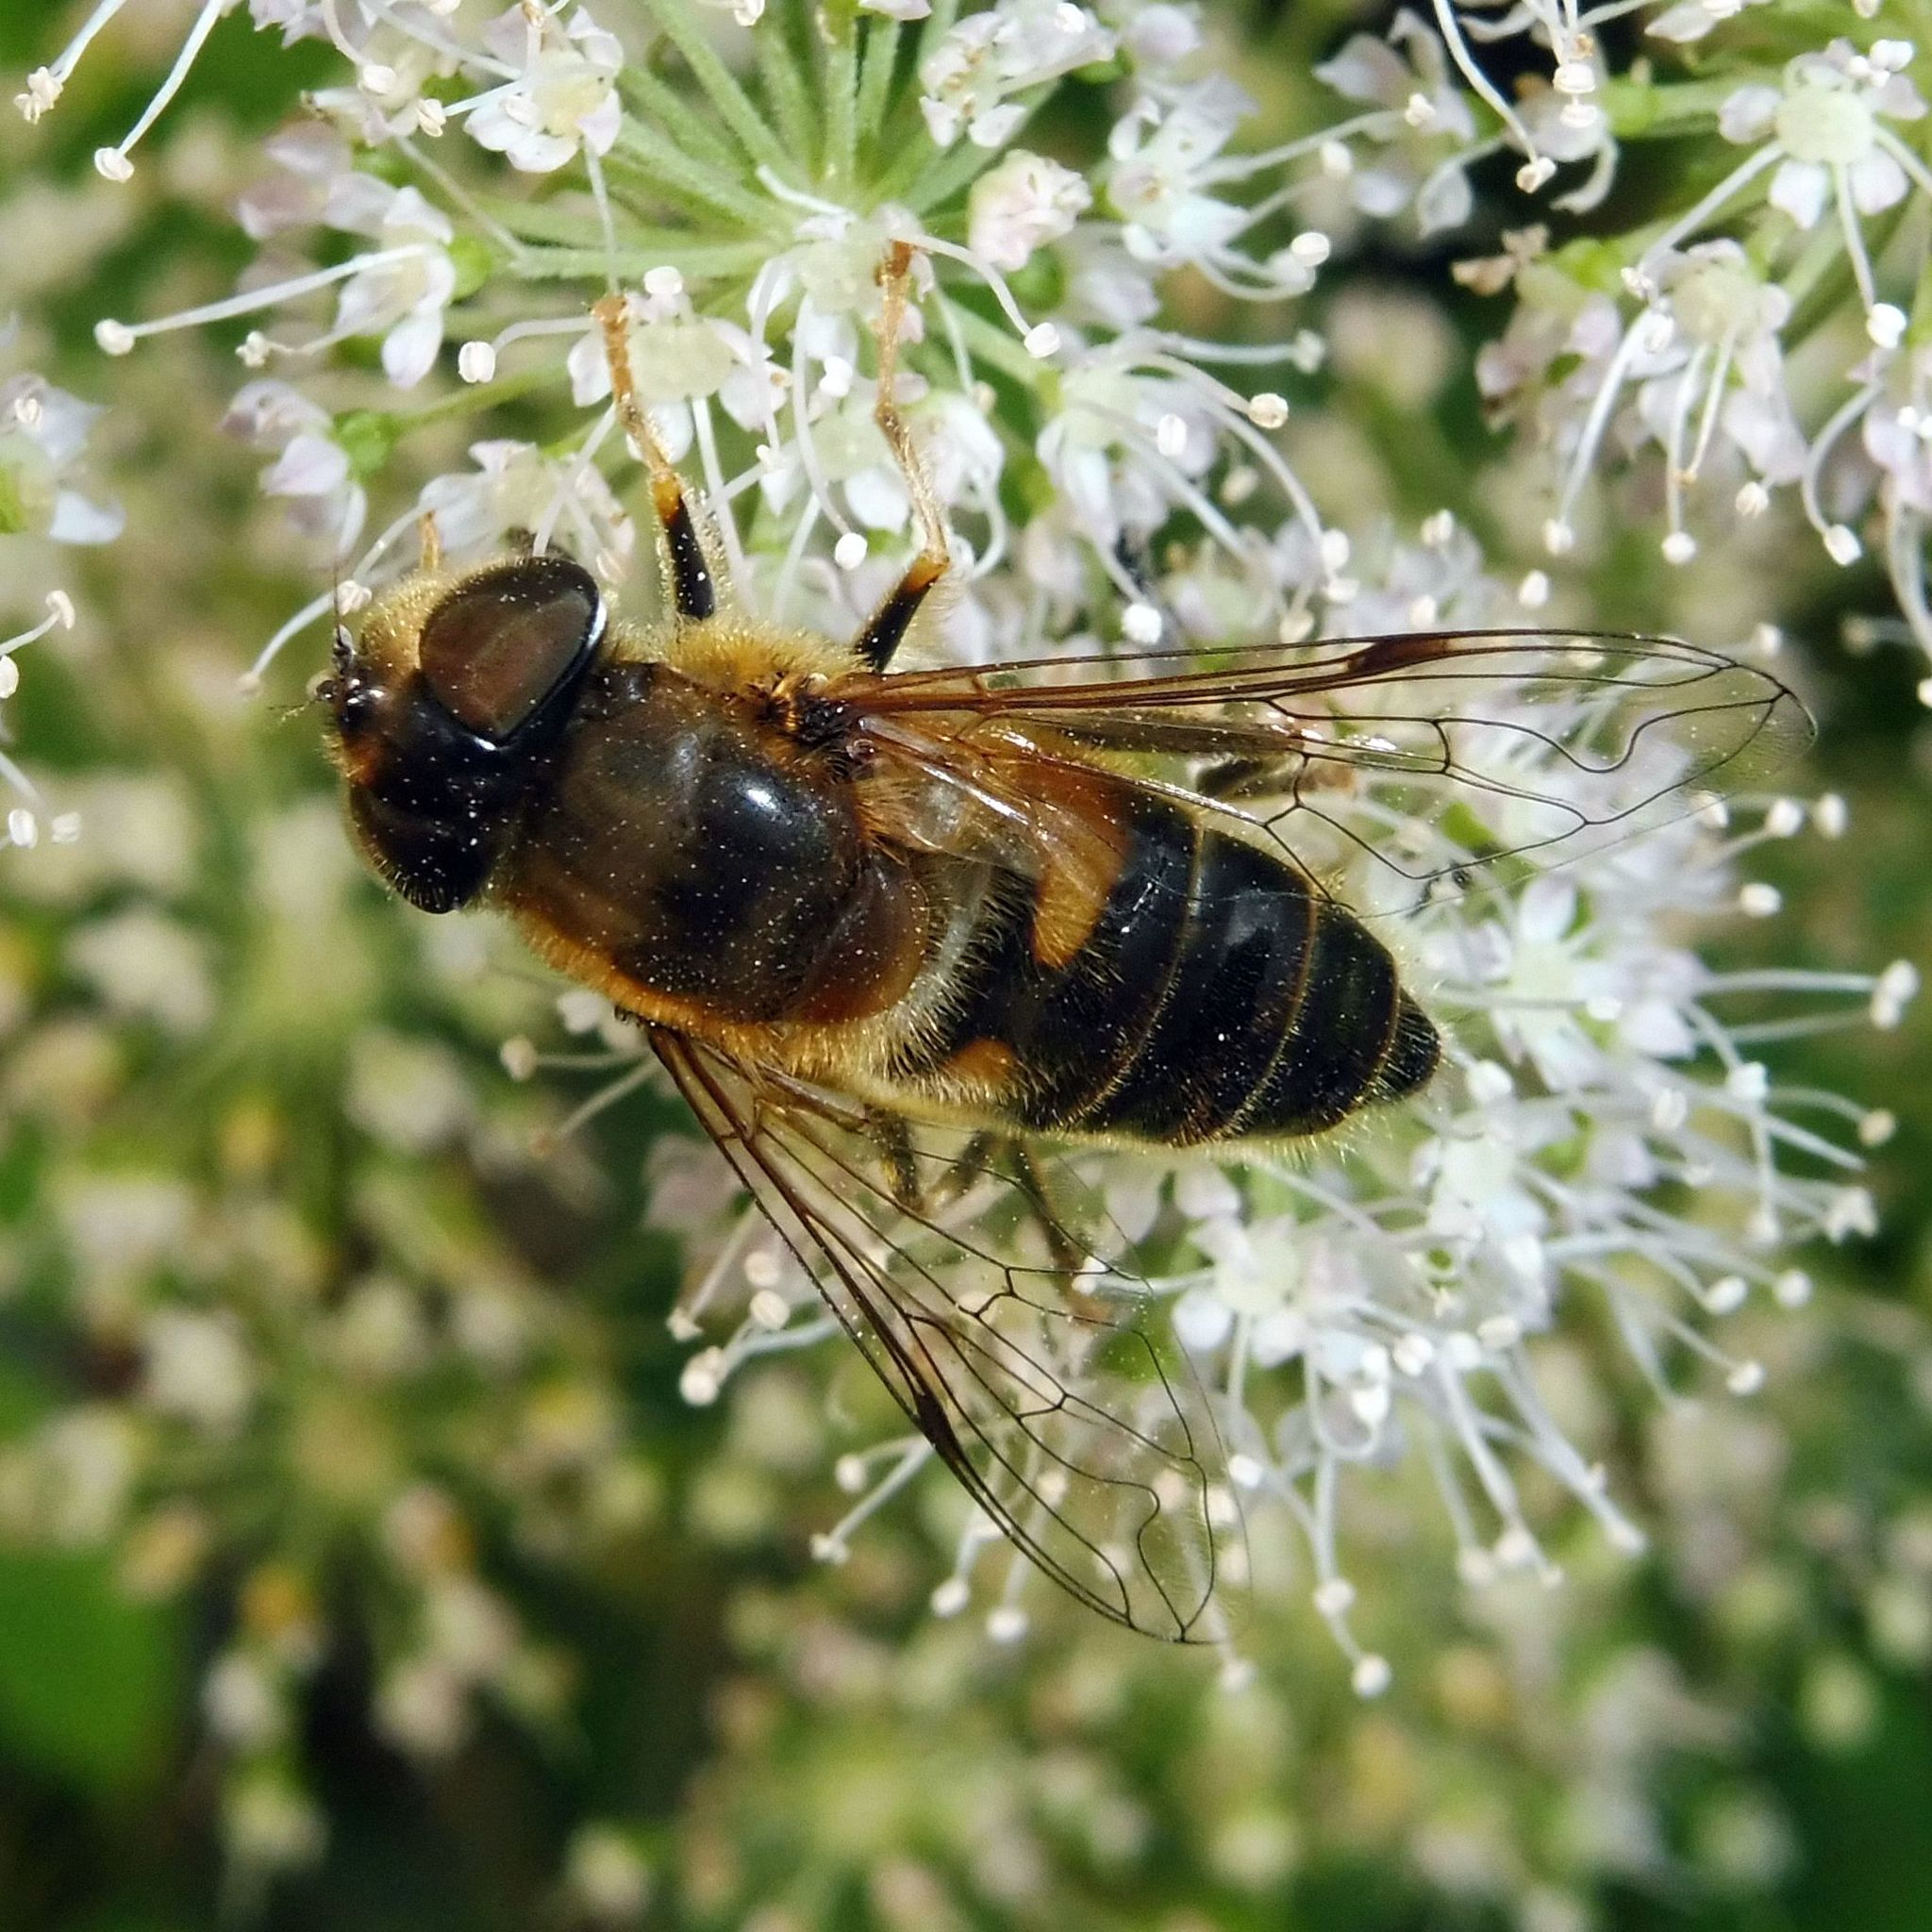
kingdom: Animalia
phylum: Arthropoda
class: Insecta
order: Diptera
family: Syrphidae
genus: Eristalis
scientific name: Eristalis pertinax
